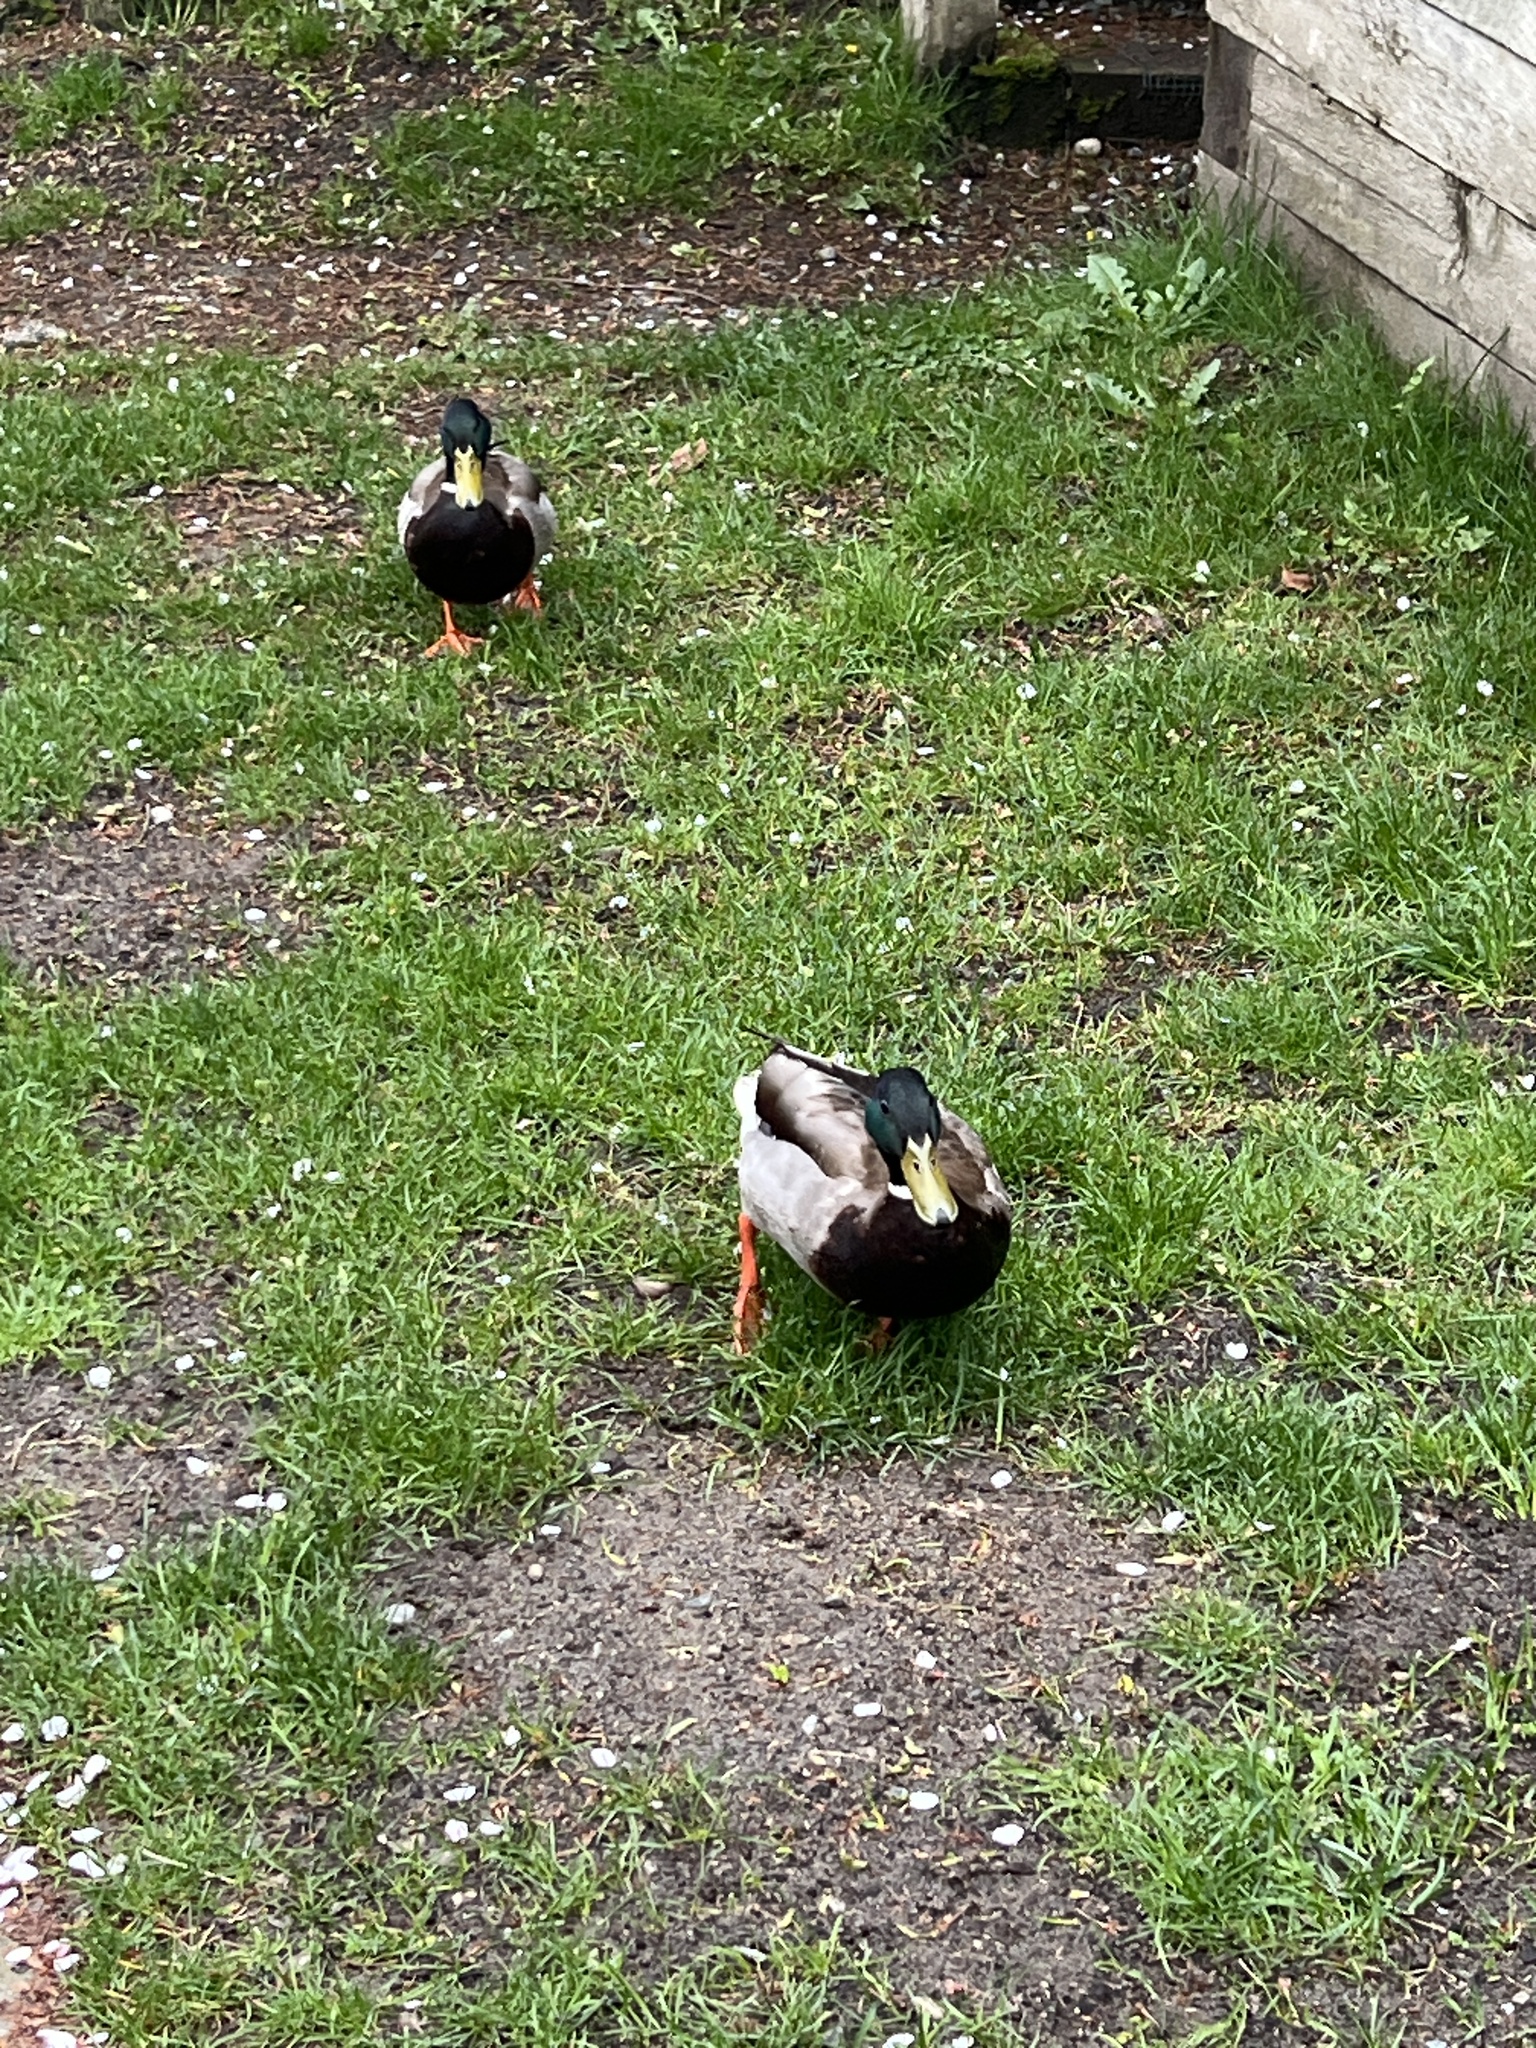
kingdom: Animalia
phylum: Chordata
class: Aves
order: Anseriformes
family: Anatidae
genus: Anas
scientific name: Anas platyrhynchos
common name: Mallard
